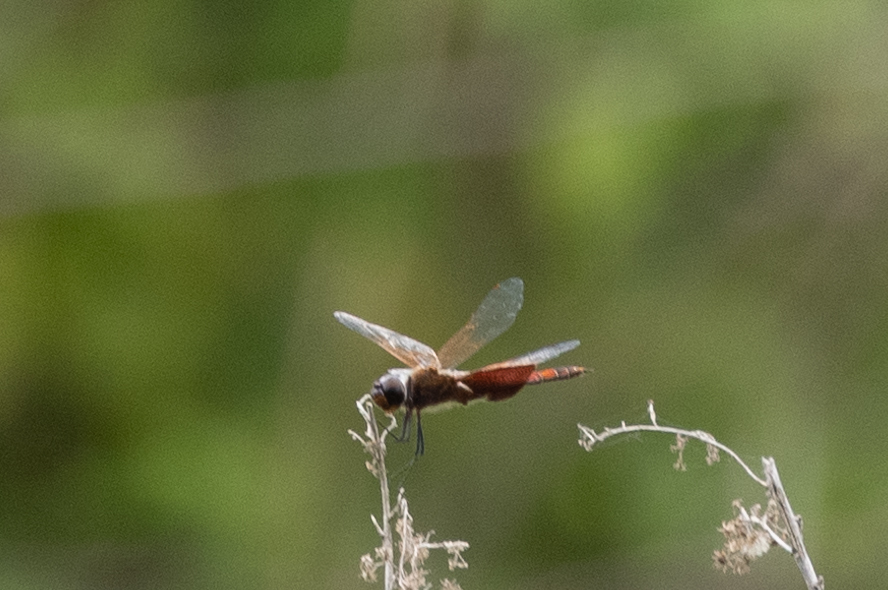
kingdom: Animalia
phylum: Arthropoda
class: Insecta
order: Odonata
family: Libellulidae
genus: Tramea
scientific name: Tramea carolina
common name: Carolina saddlebags
